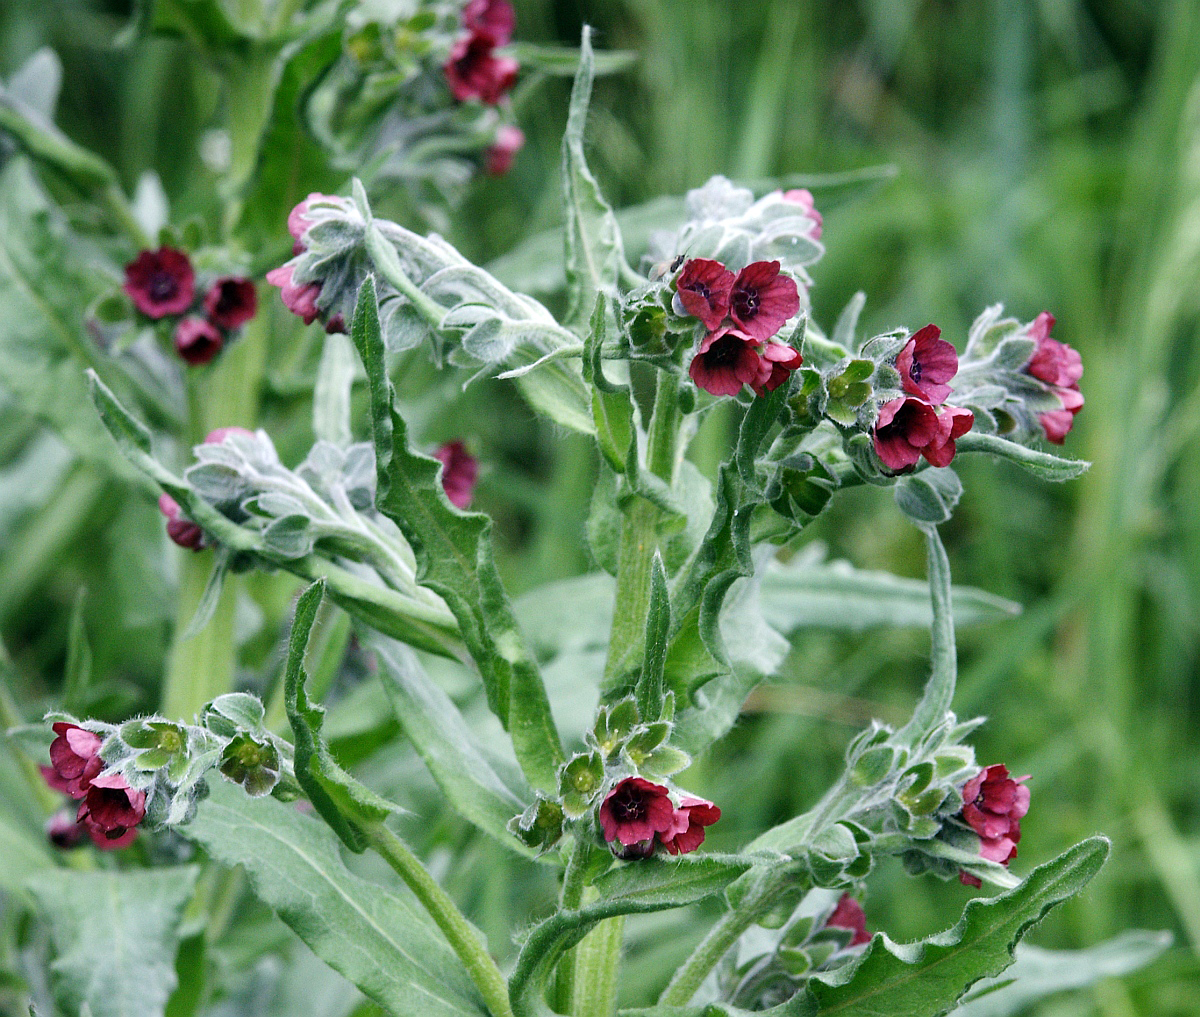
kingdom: Plantae
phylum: Tracheophyta
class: Magnoliopsida
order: Boraginales
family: Boraginaceae
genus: Cynoglossum
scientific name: Cynoglossum officinale
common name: Hound's-tongue
